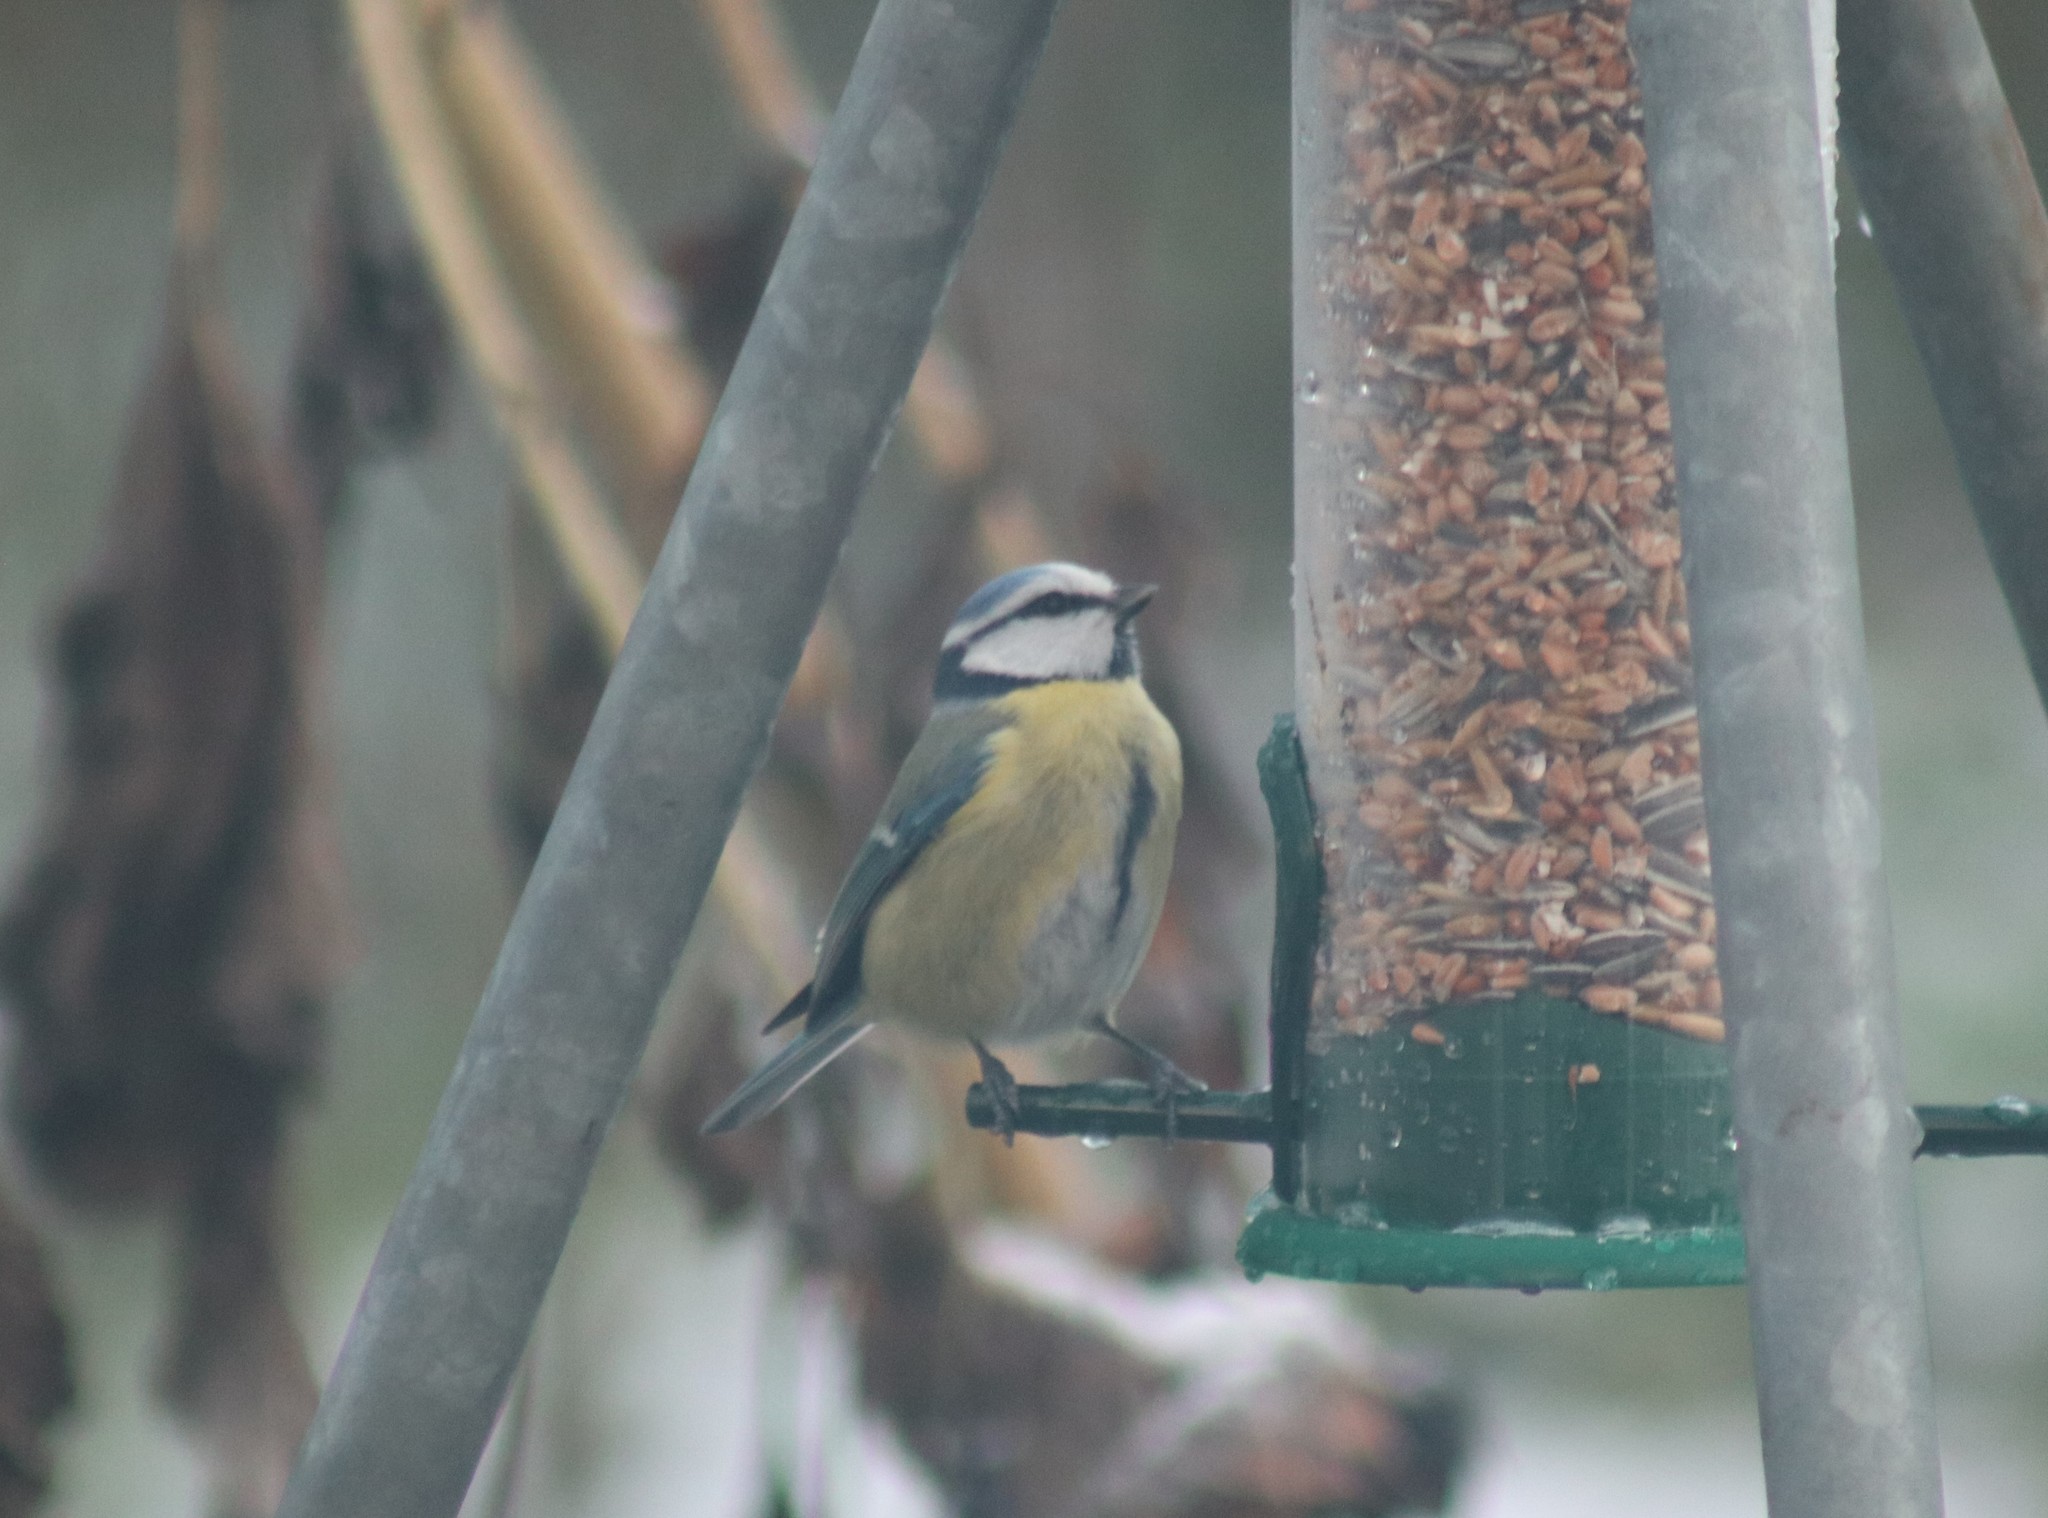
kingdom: Animalia
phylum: Chordata
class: Aves
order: Passeriformes
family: Paridae
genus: Cyanistes
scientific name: Cyanistes caeruleus
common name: Eurasian blue tit
